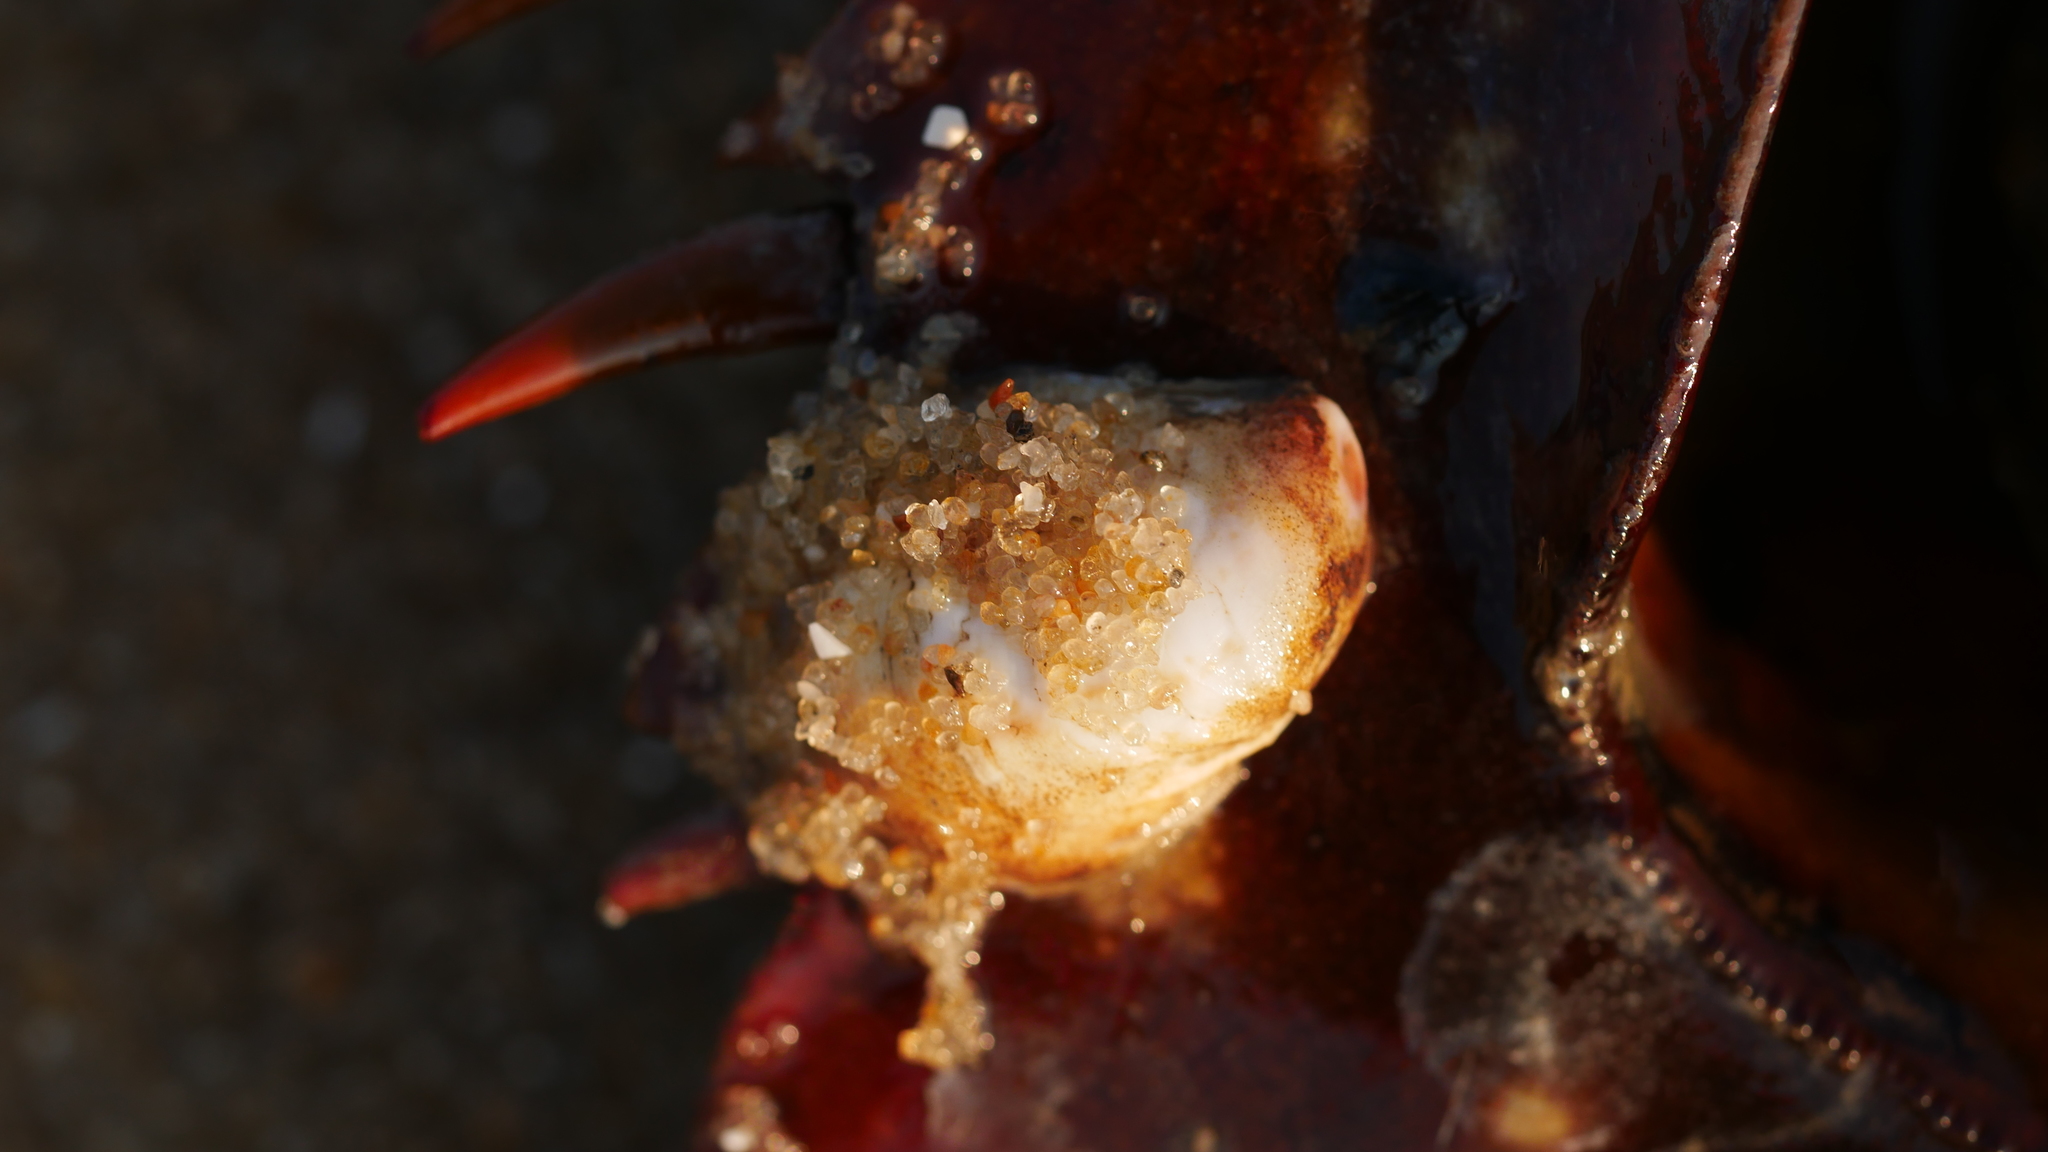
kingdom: Animalia
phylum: Mollusca
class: Gastropoda
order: Littorinimorpha
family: Calyptraeidae
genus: Crepidula
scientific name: Crepidula fornicata
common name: Slipper limpet
